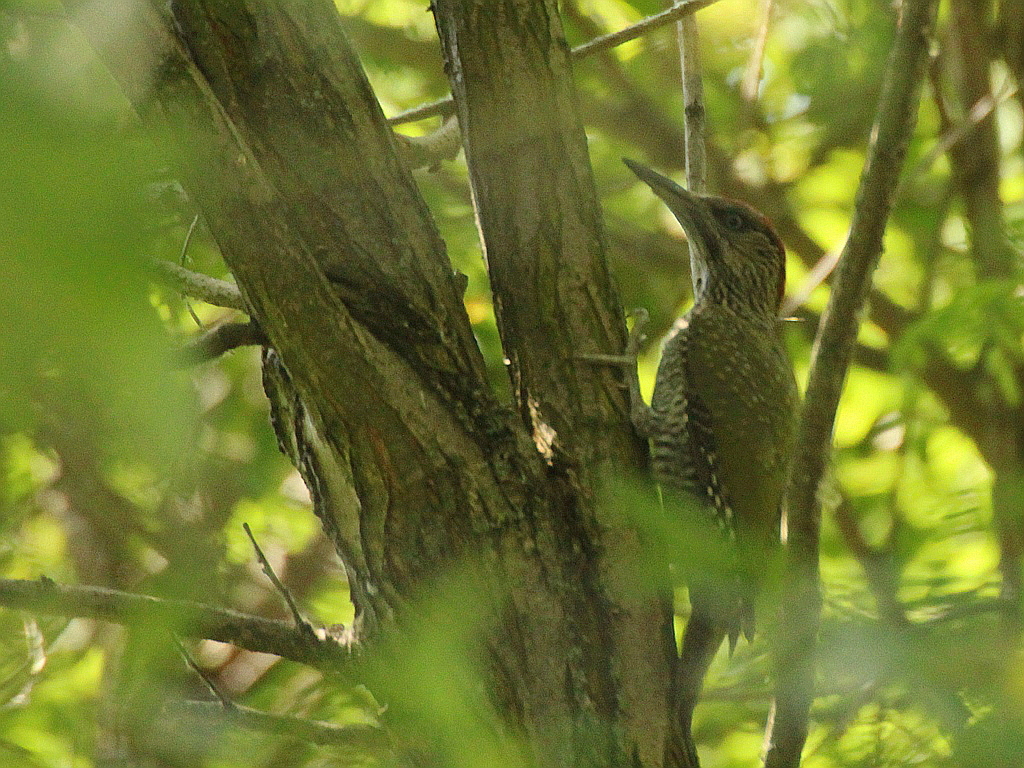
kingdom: Animalia
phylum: Chordata
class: Aves
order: Piciformes
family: Picidae
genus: Picus
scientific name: Picus viridis
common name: European green woodpecker
